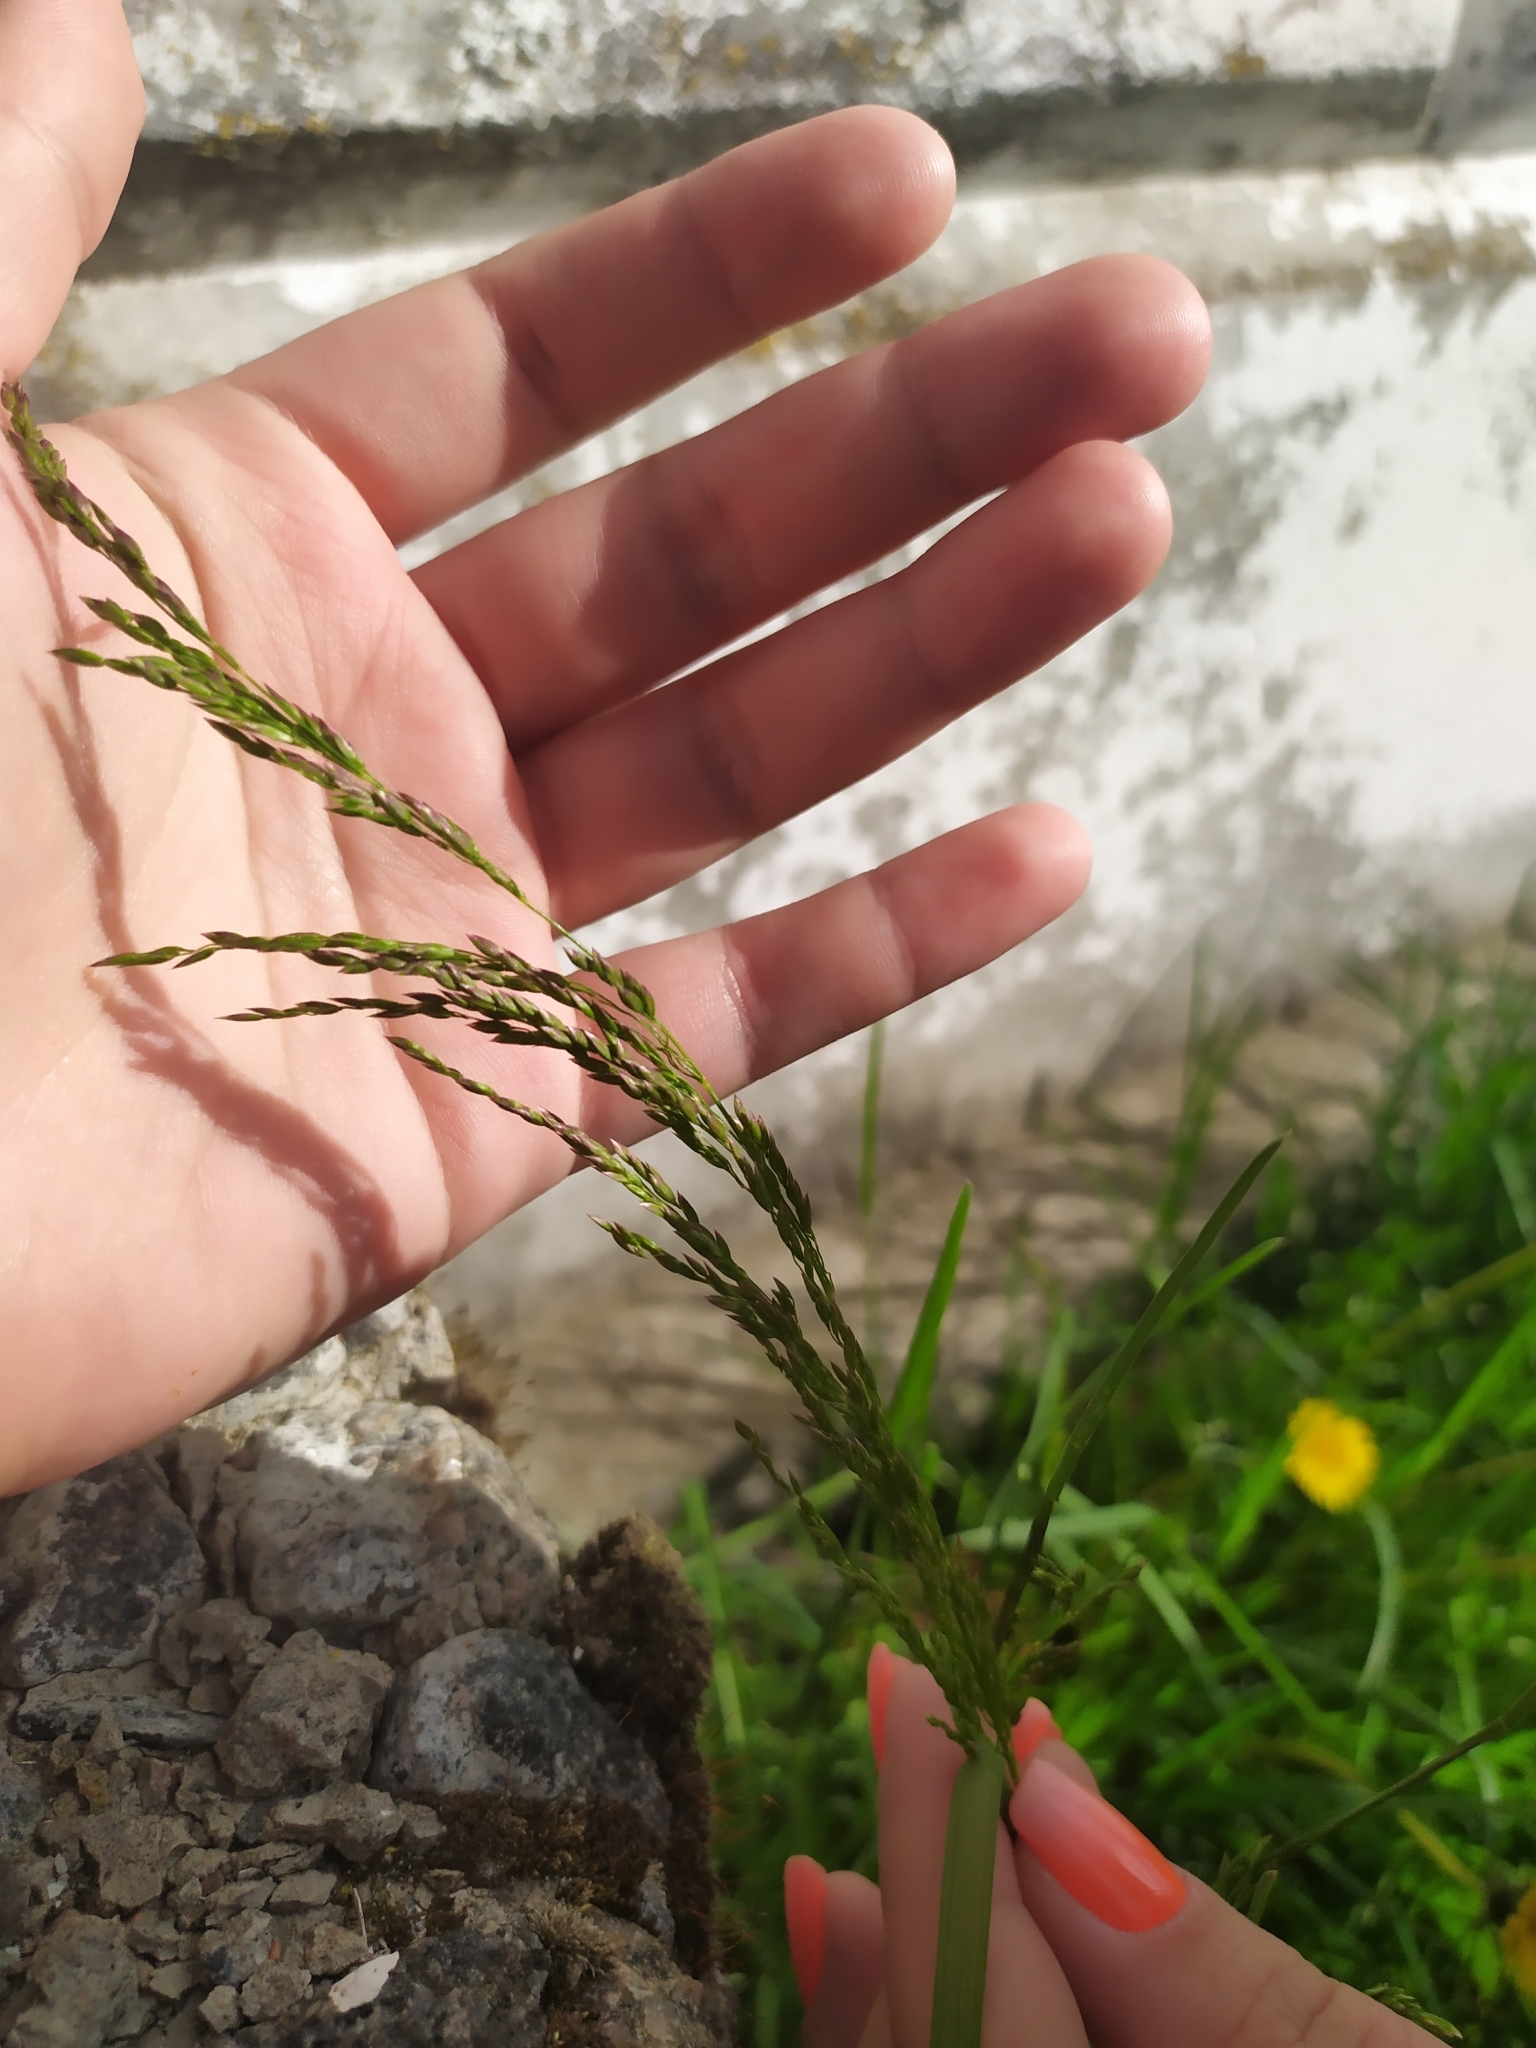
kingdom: Plantae
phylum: Tracheophyta
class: Liliopsida
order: Poales
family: Poaceae
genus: Poa
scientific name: Poa pratensis
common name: Kentucky bluegrass
